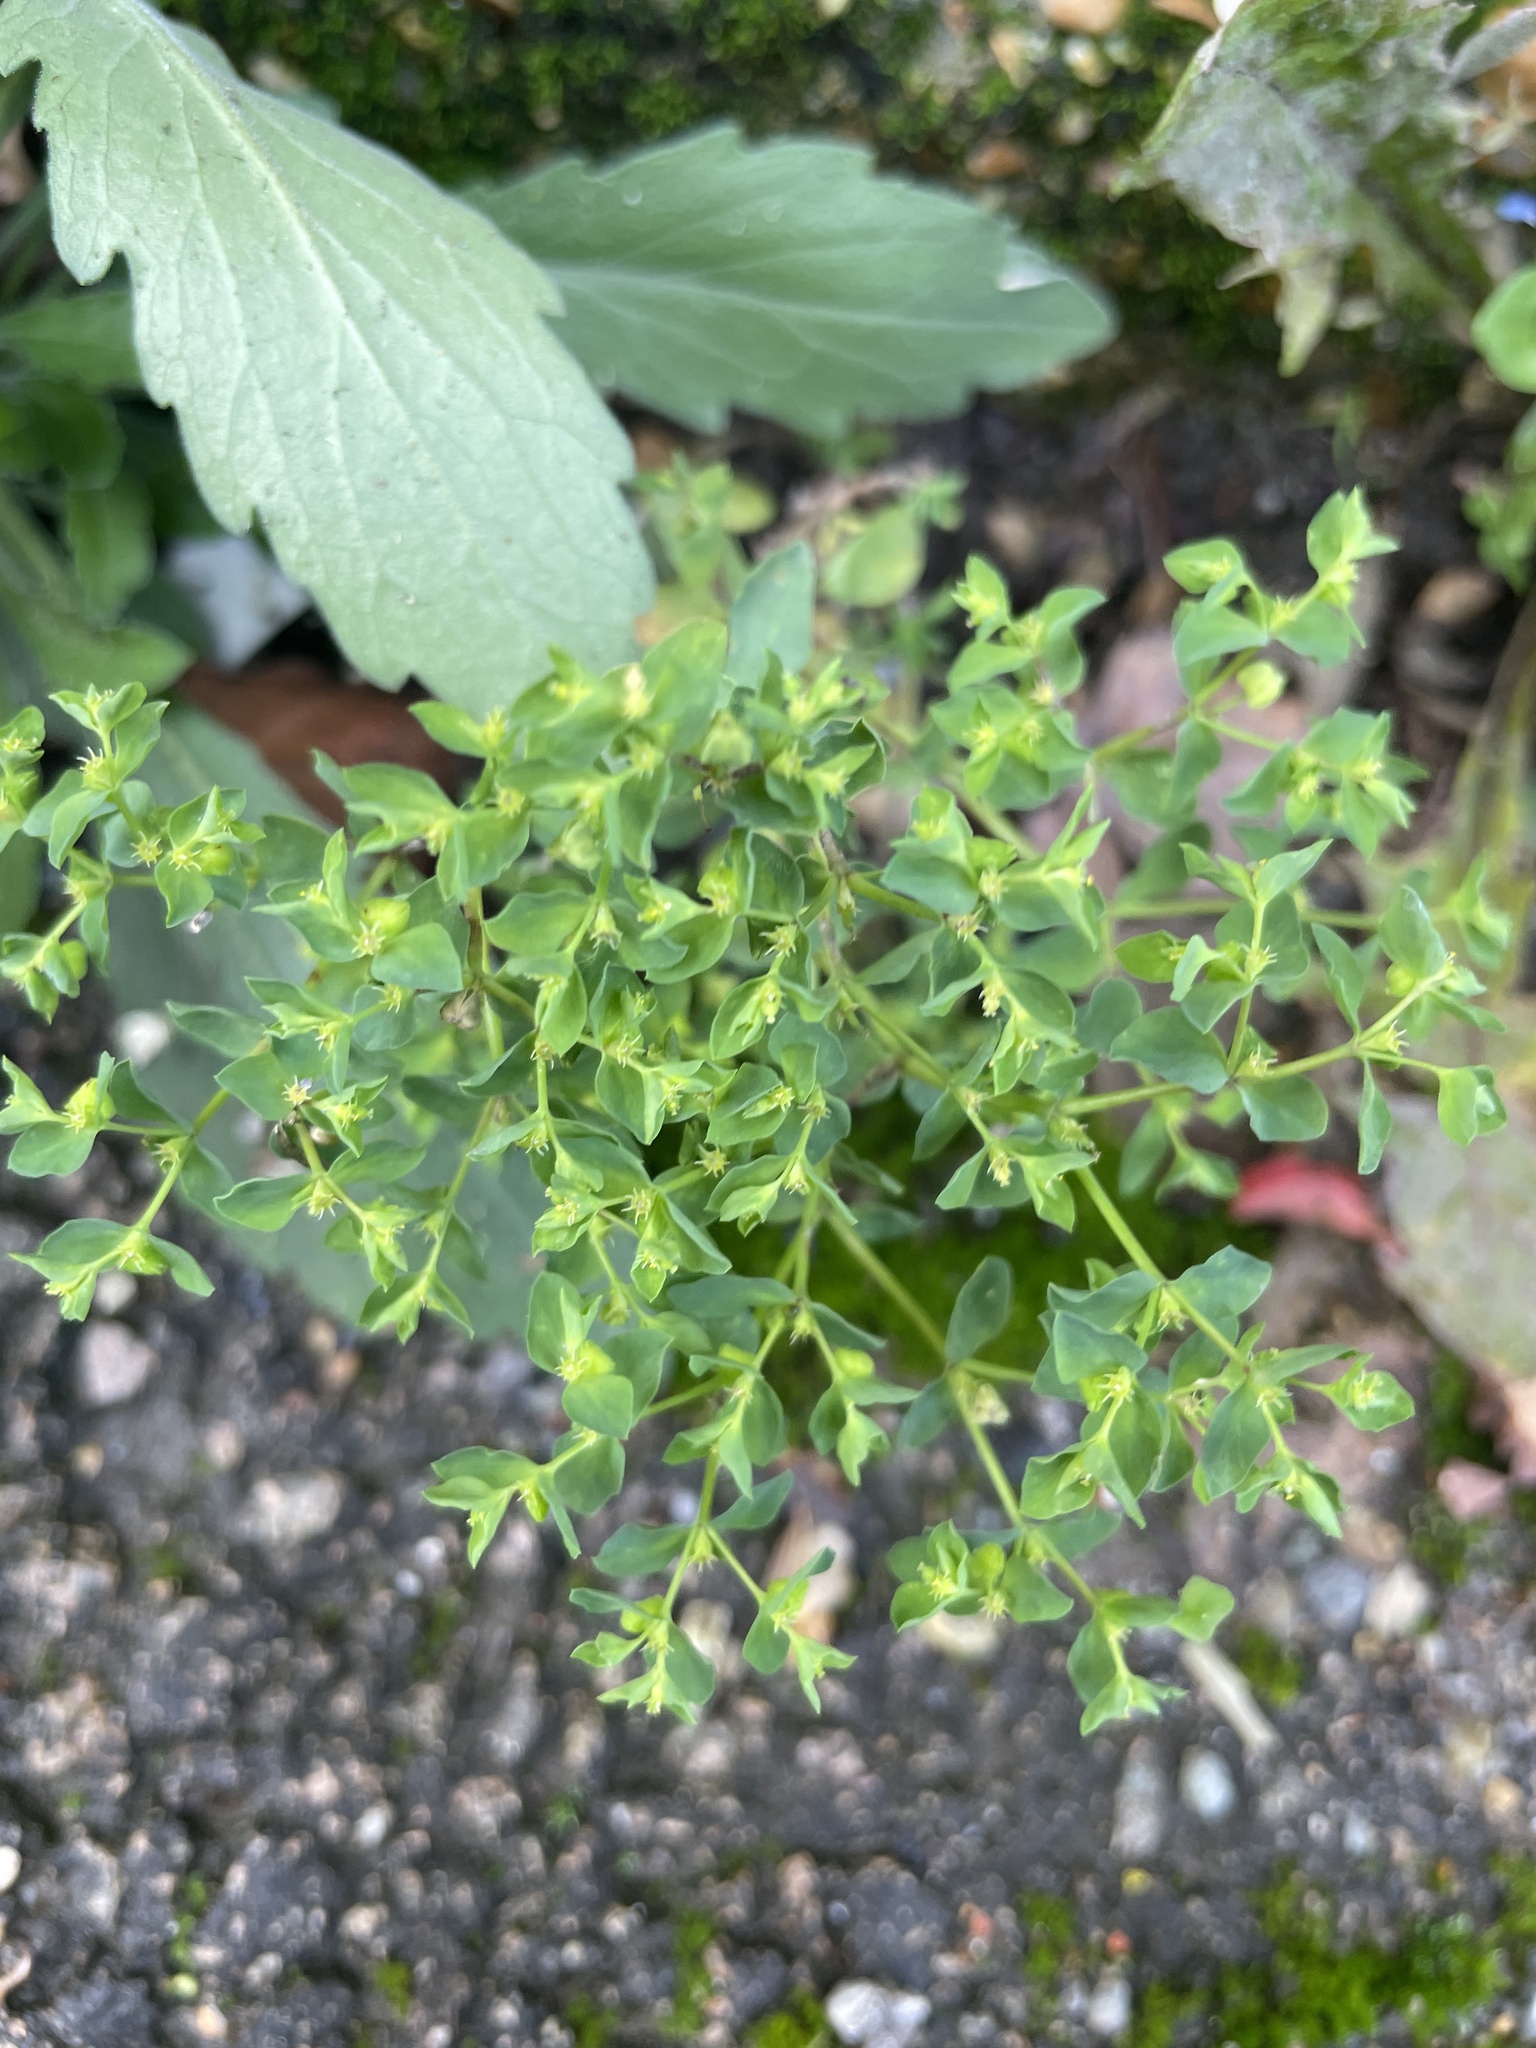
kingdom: Plantae
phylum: Tracheophyta
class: Magnoliopsida
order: Malpighiales
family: Euphorbiaceae
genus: Euphorbia
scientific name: Euphorbia peplus
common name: Petty spurge
